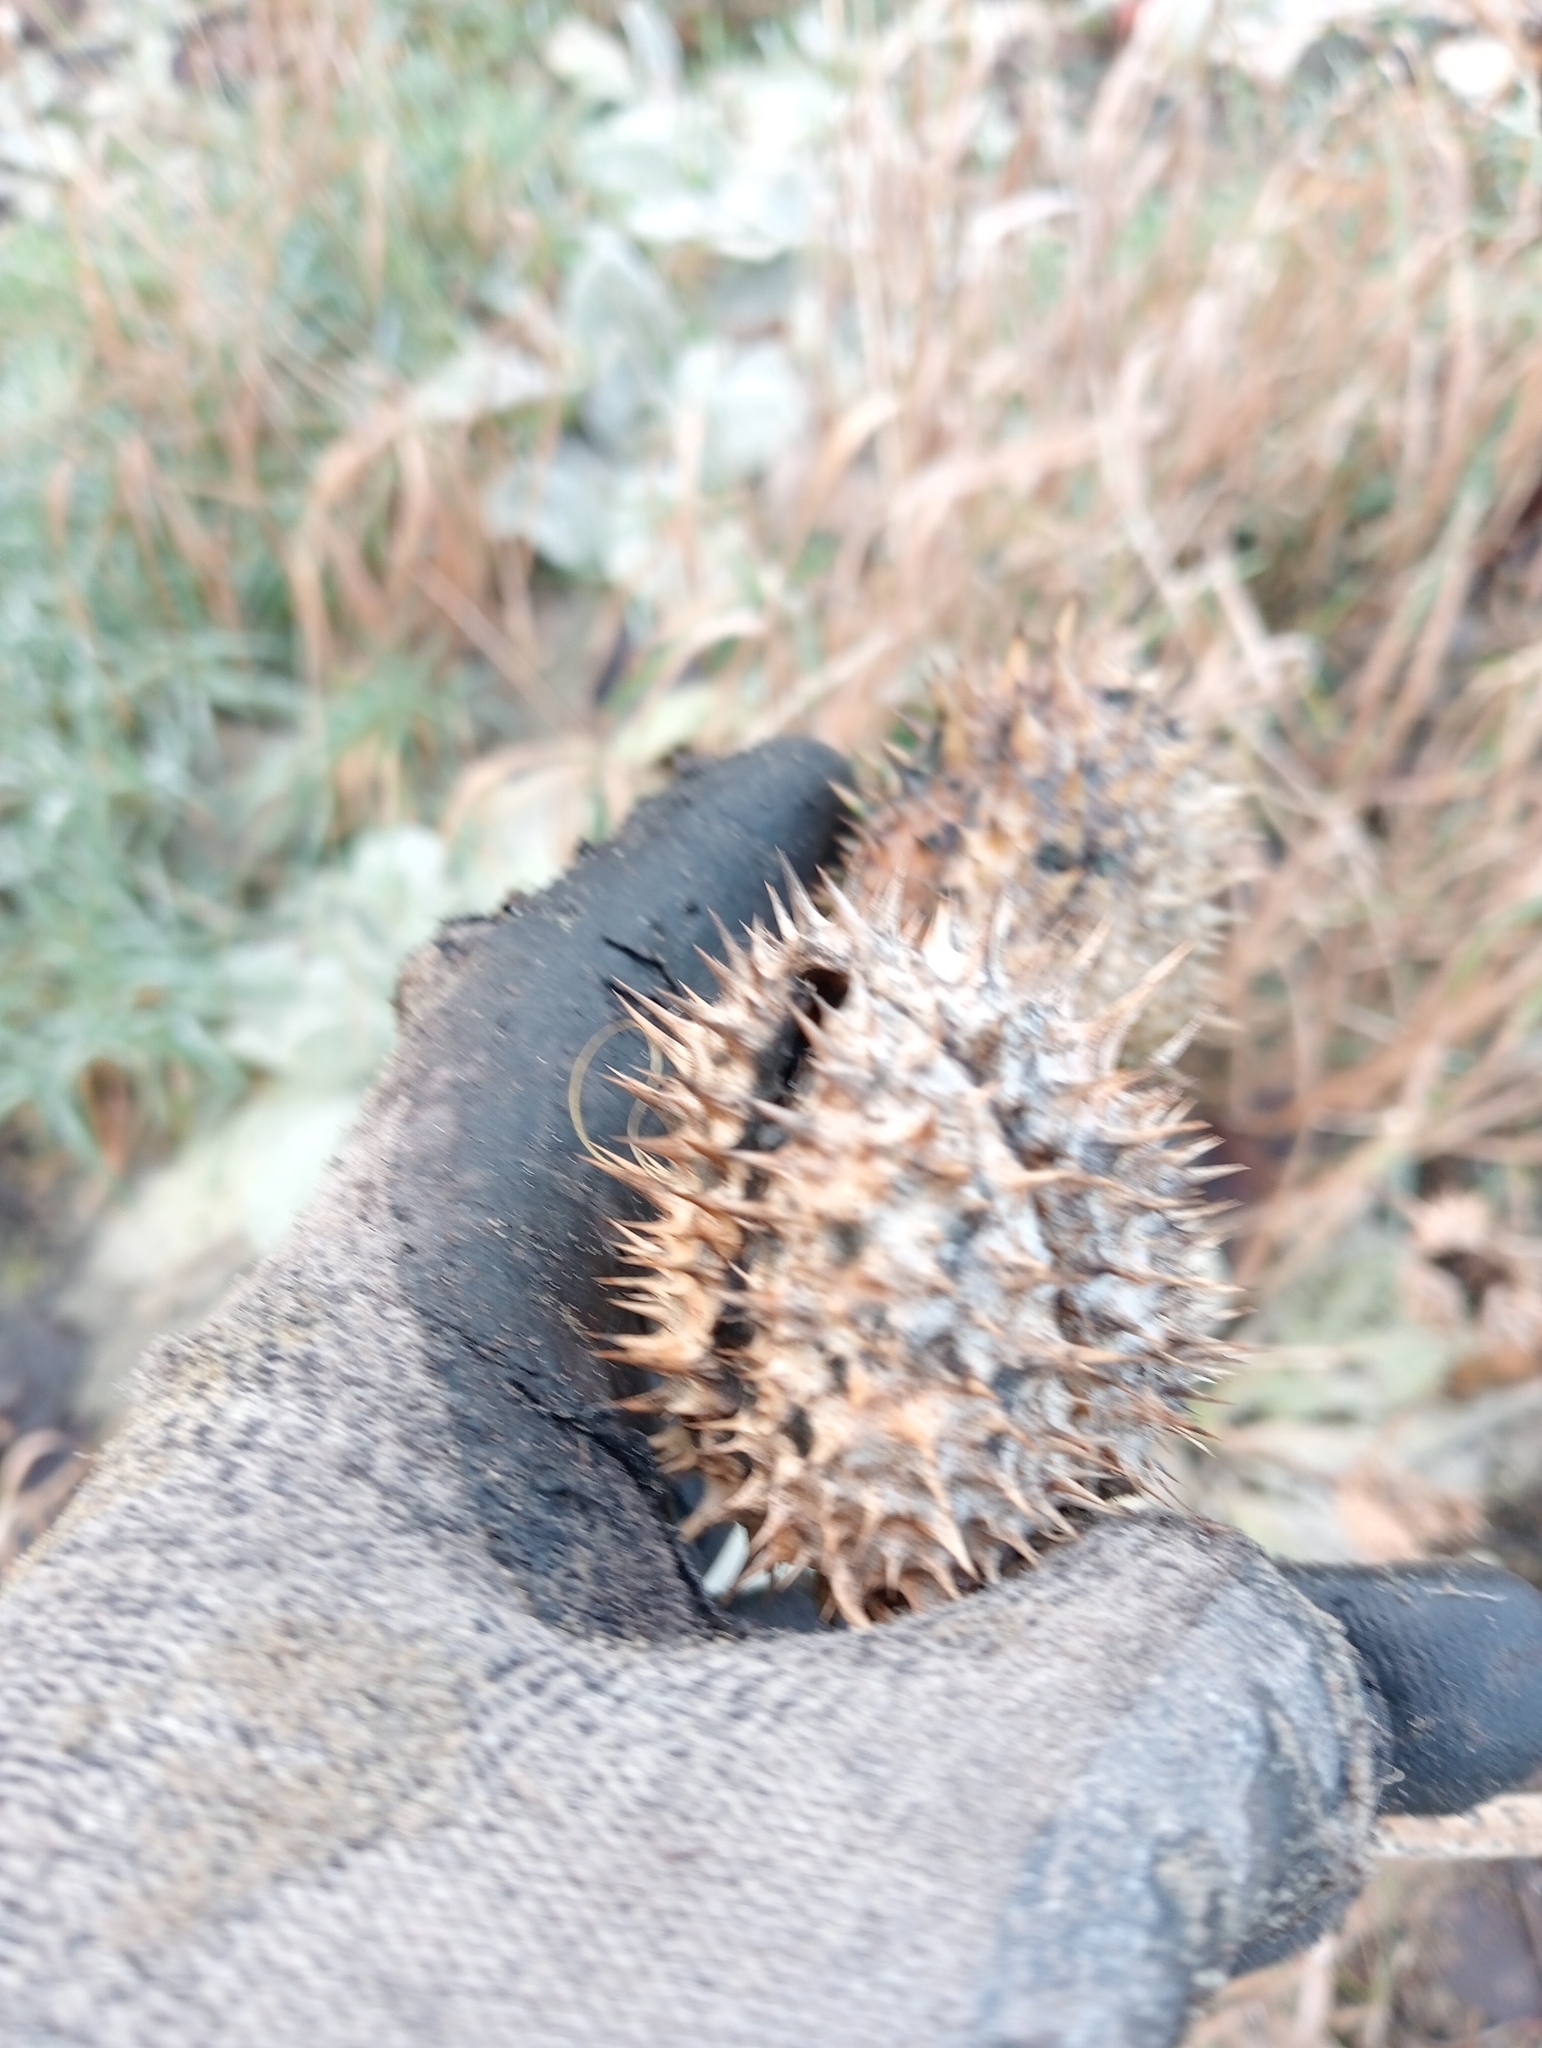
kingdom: Plantae
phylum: Tracheophyta
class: Magnoliopsida
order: Solanales
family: Solanaceae
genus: Datura
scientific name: Datura stramonium
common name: Thorn-apple
